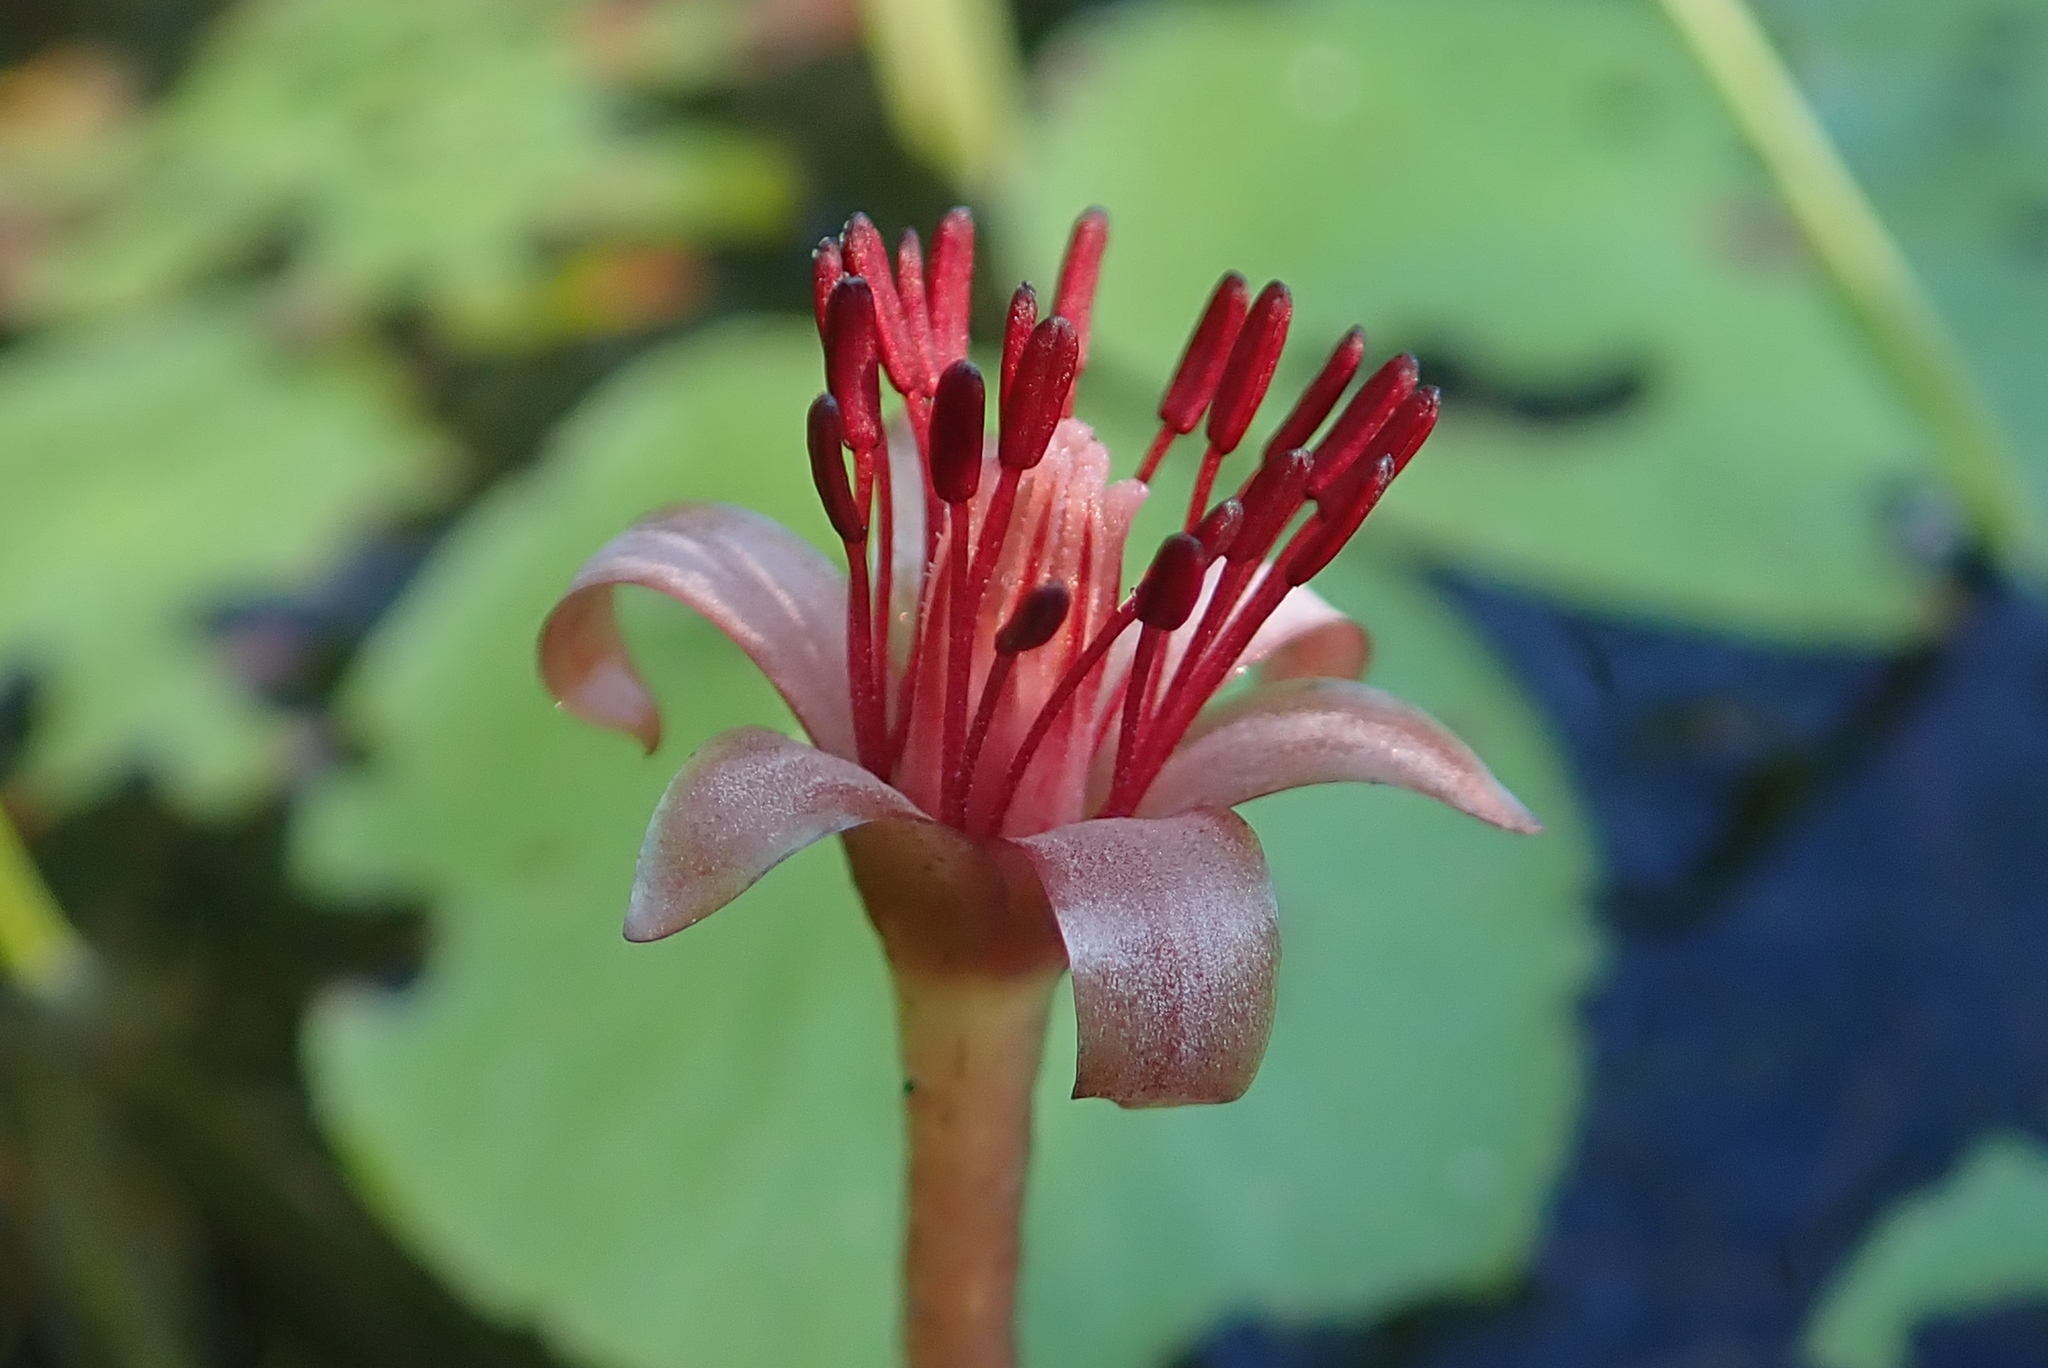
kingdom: Plantae
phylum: Tracheophyta
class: Magnoliopsida
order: Nymphaeales
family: Cabombaceae
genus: Brasenia
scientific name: Brasenia schreberi
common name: Water-shield
